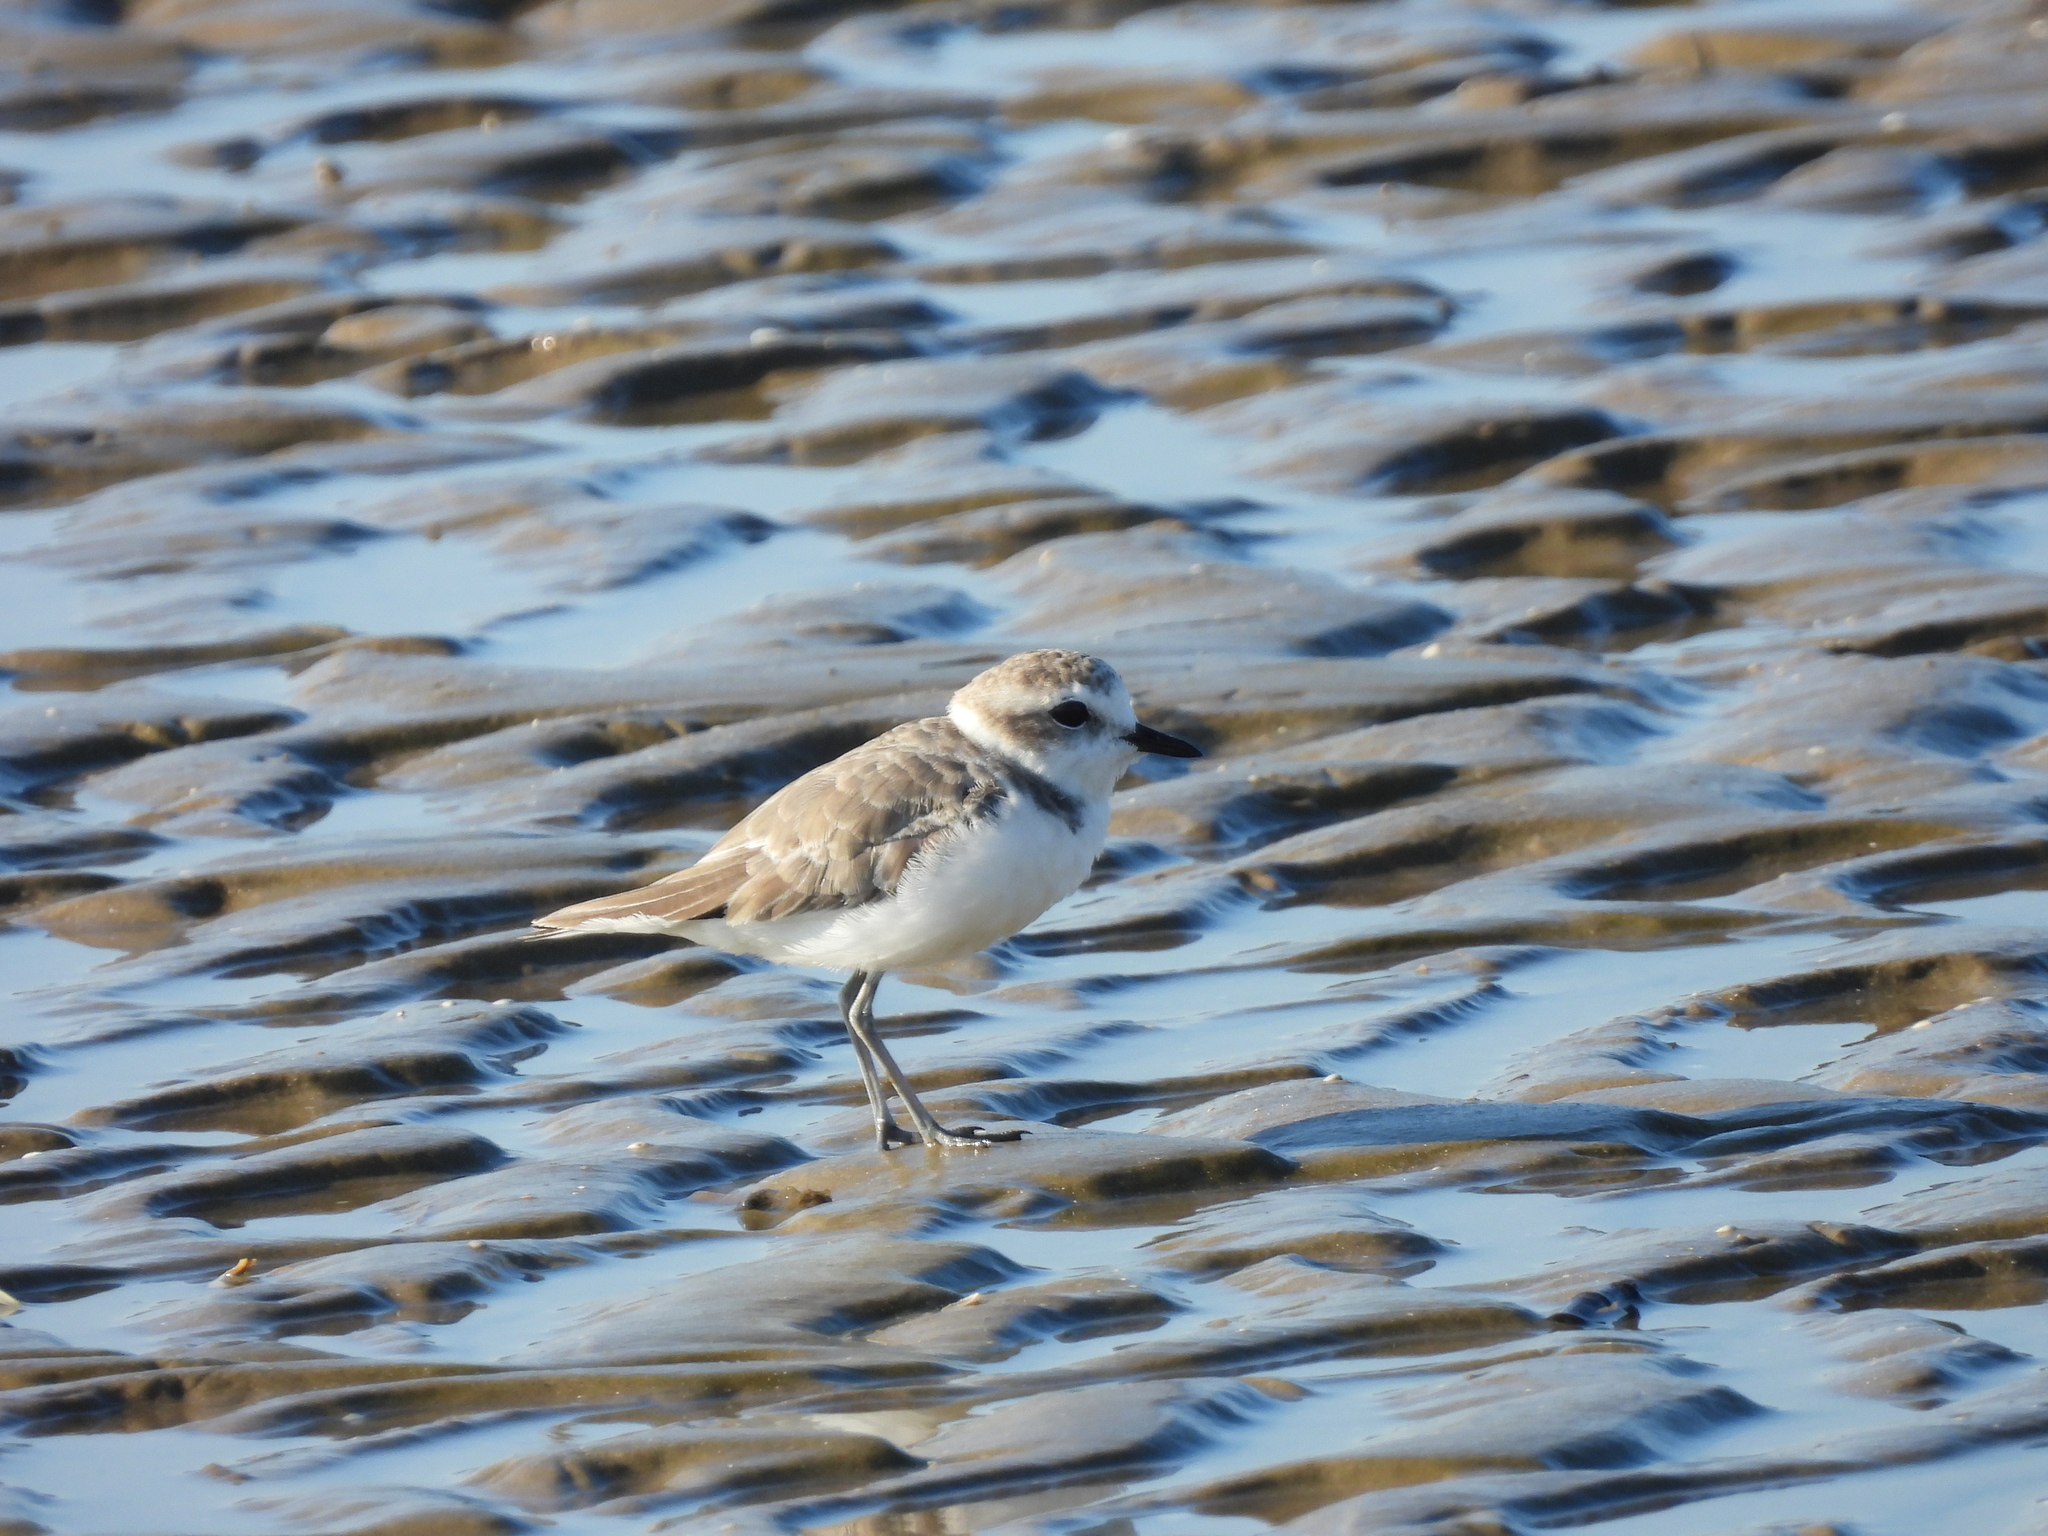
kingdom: Animalia
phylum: Chordata
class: Aves
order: Charadriiformes
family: Charadriidae
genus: Anarhynchus
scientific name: Anarhynchus
